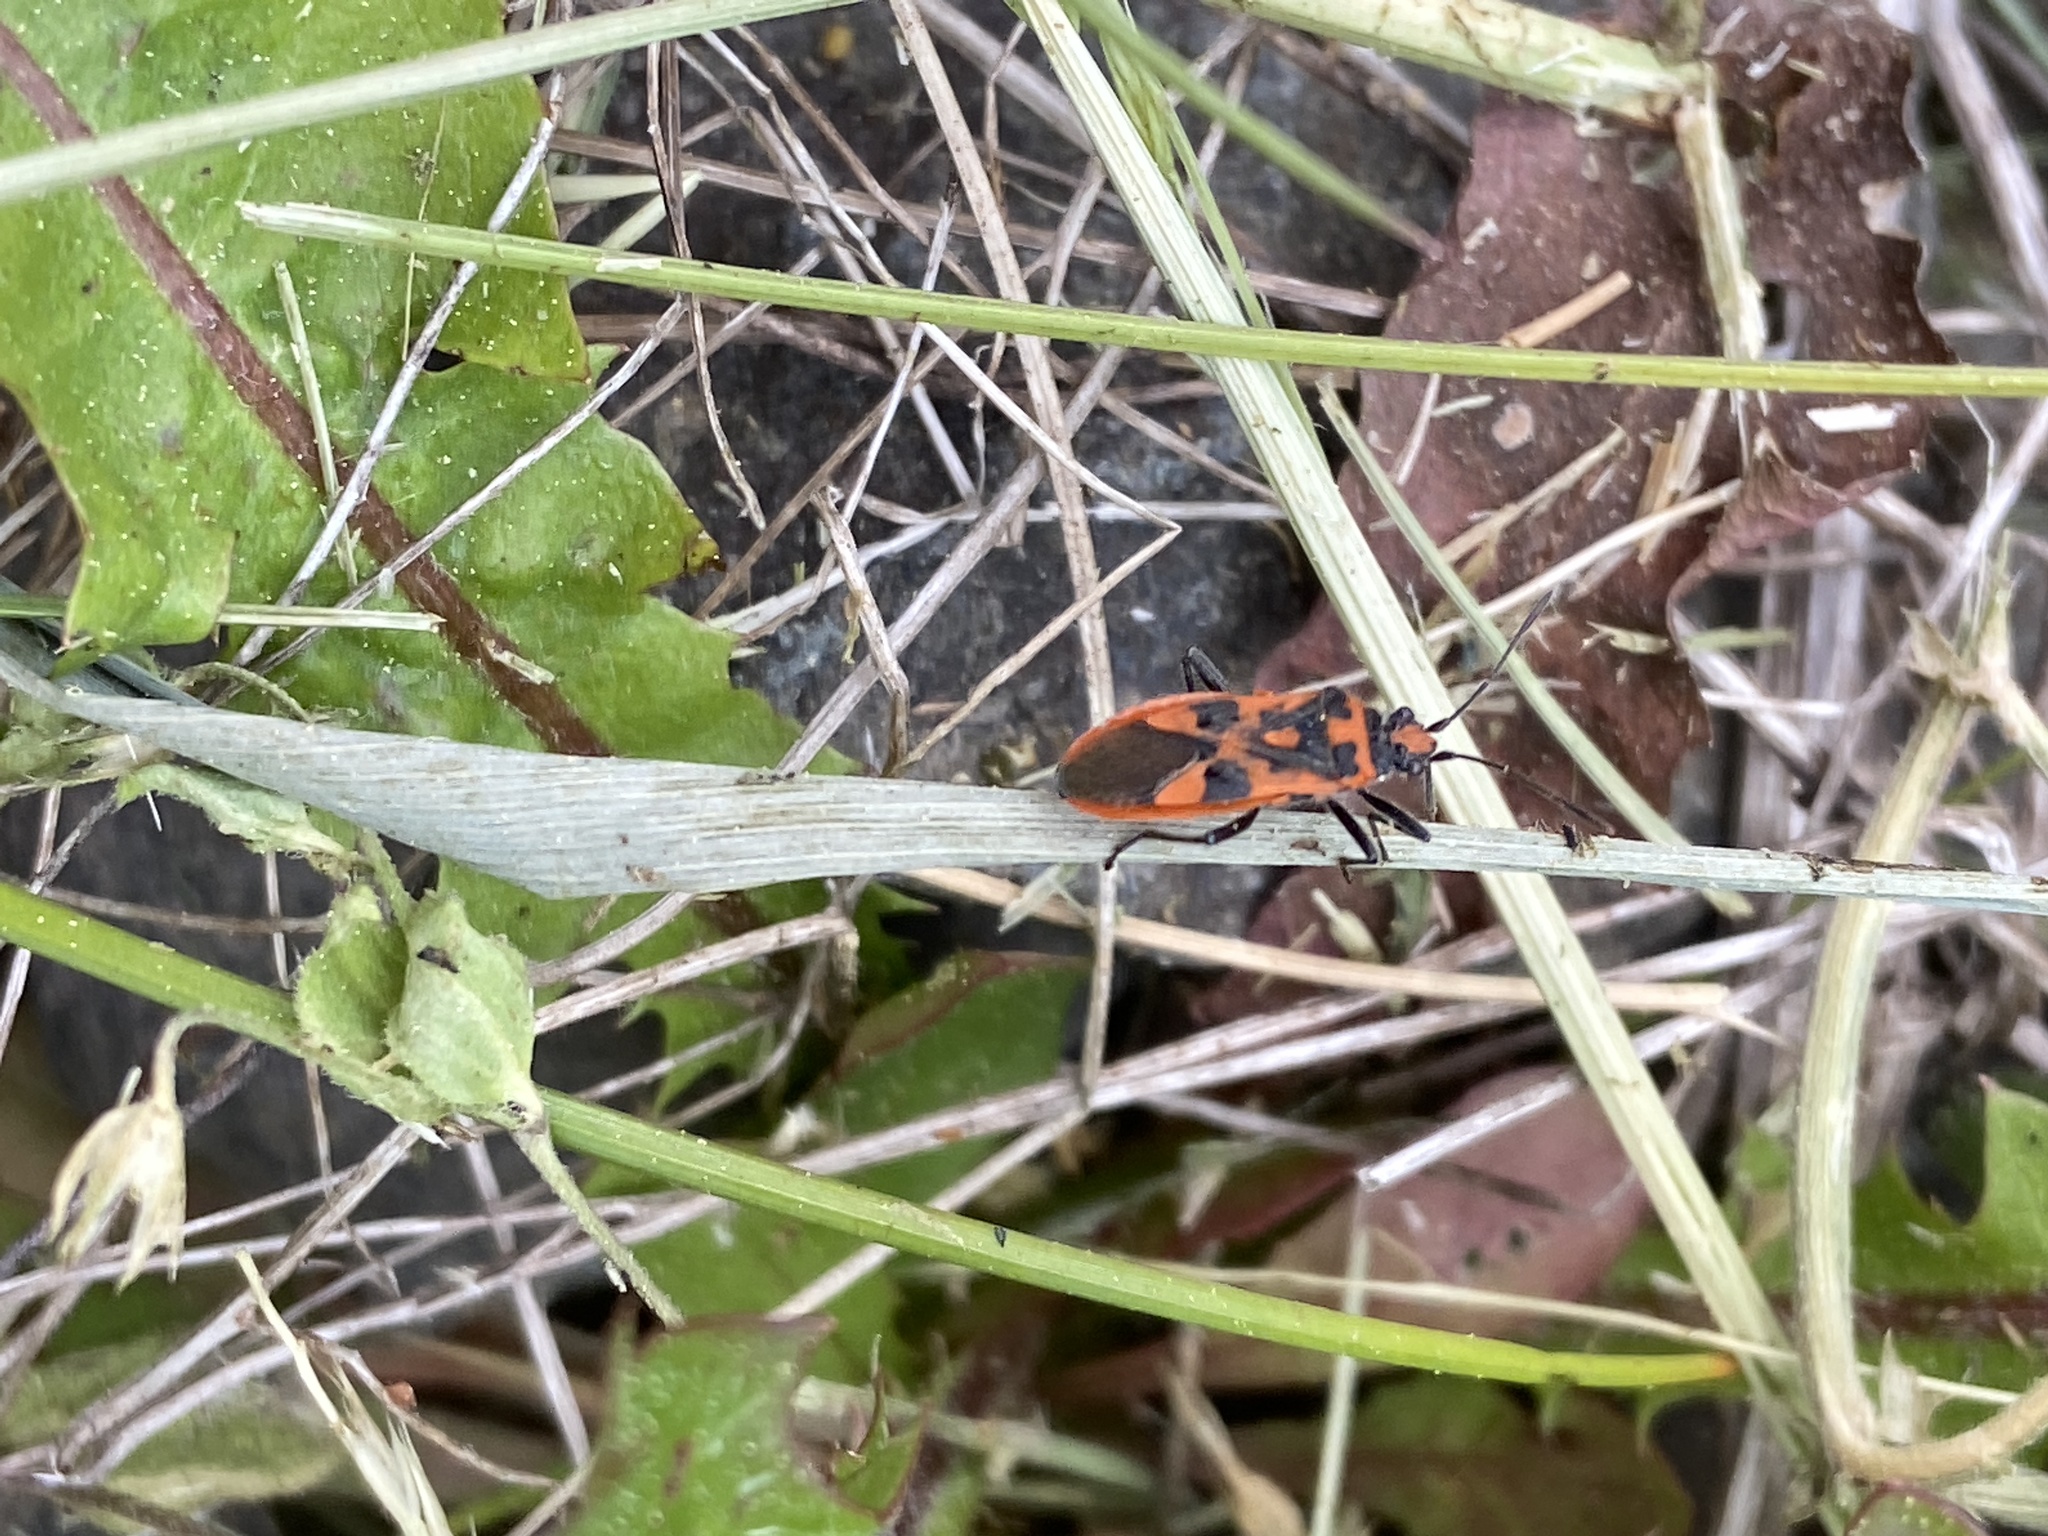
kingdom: Animalia
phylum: Arthropoda
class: Insecta
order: Hemiptera
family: Rhopalidae
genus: Corizus
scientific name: Corizus hyoscyami
